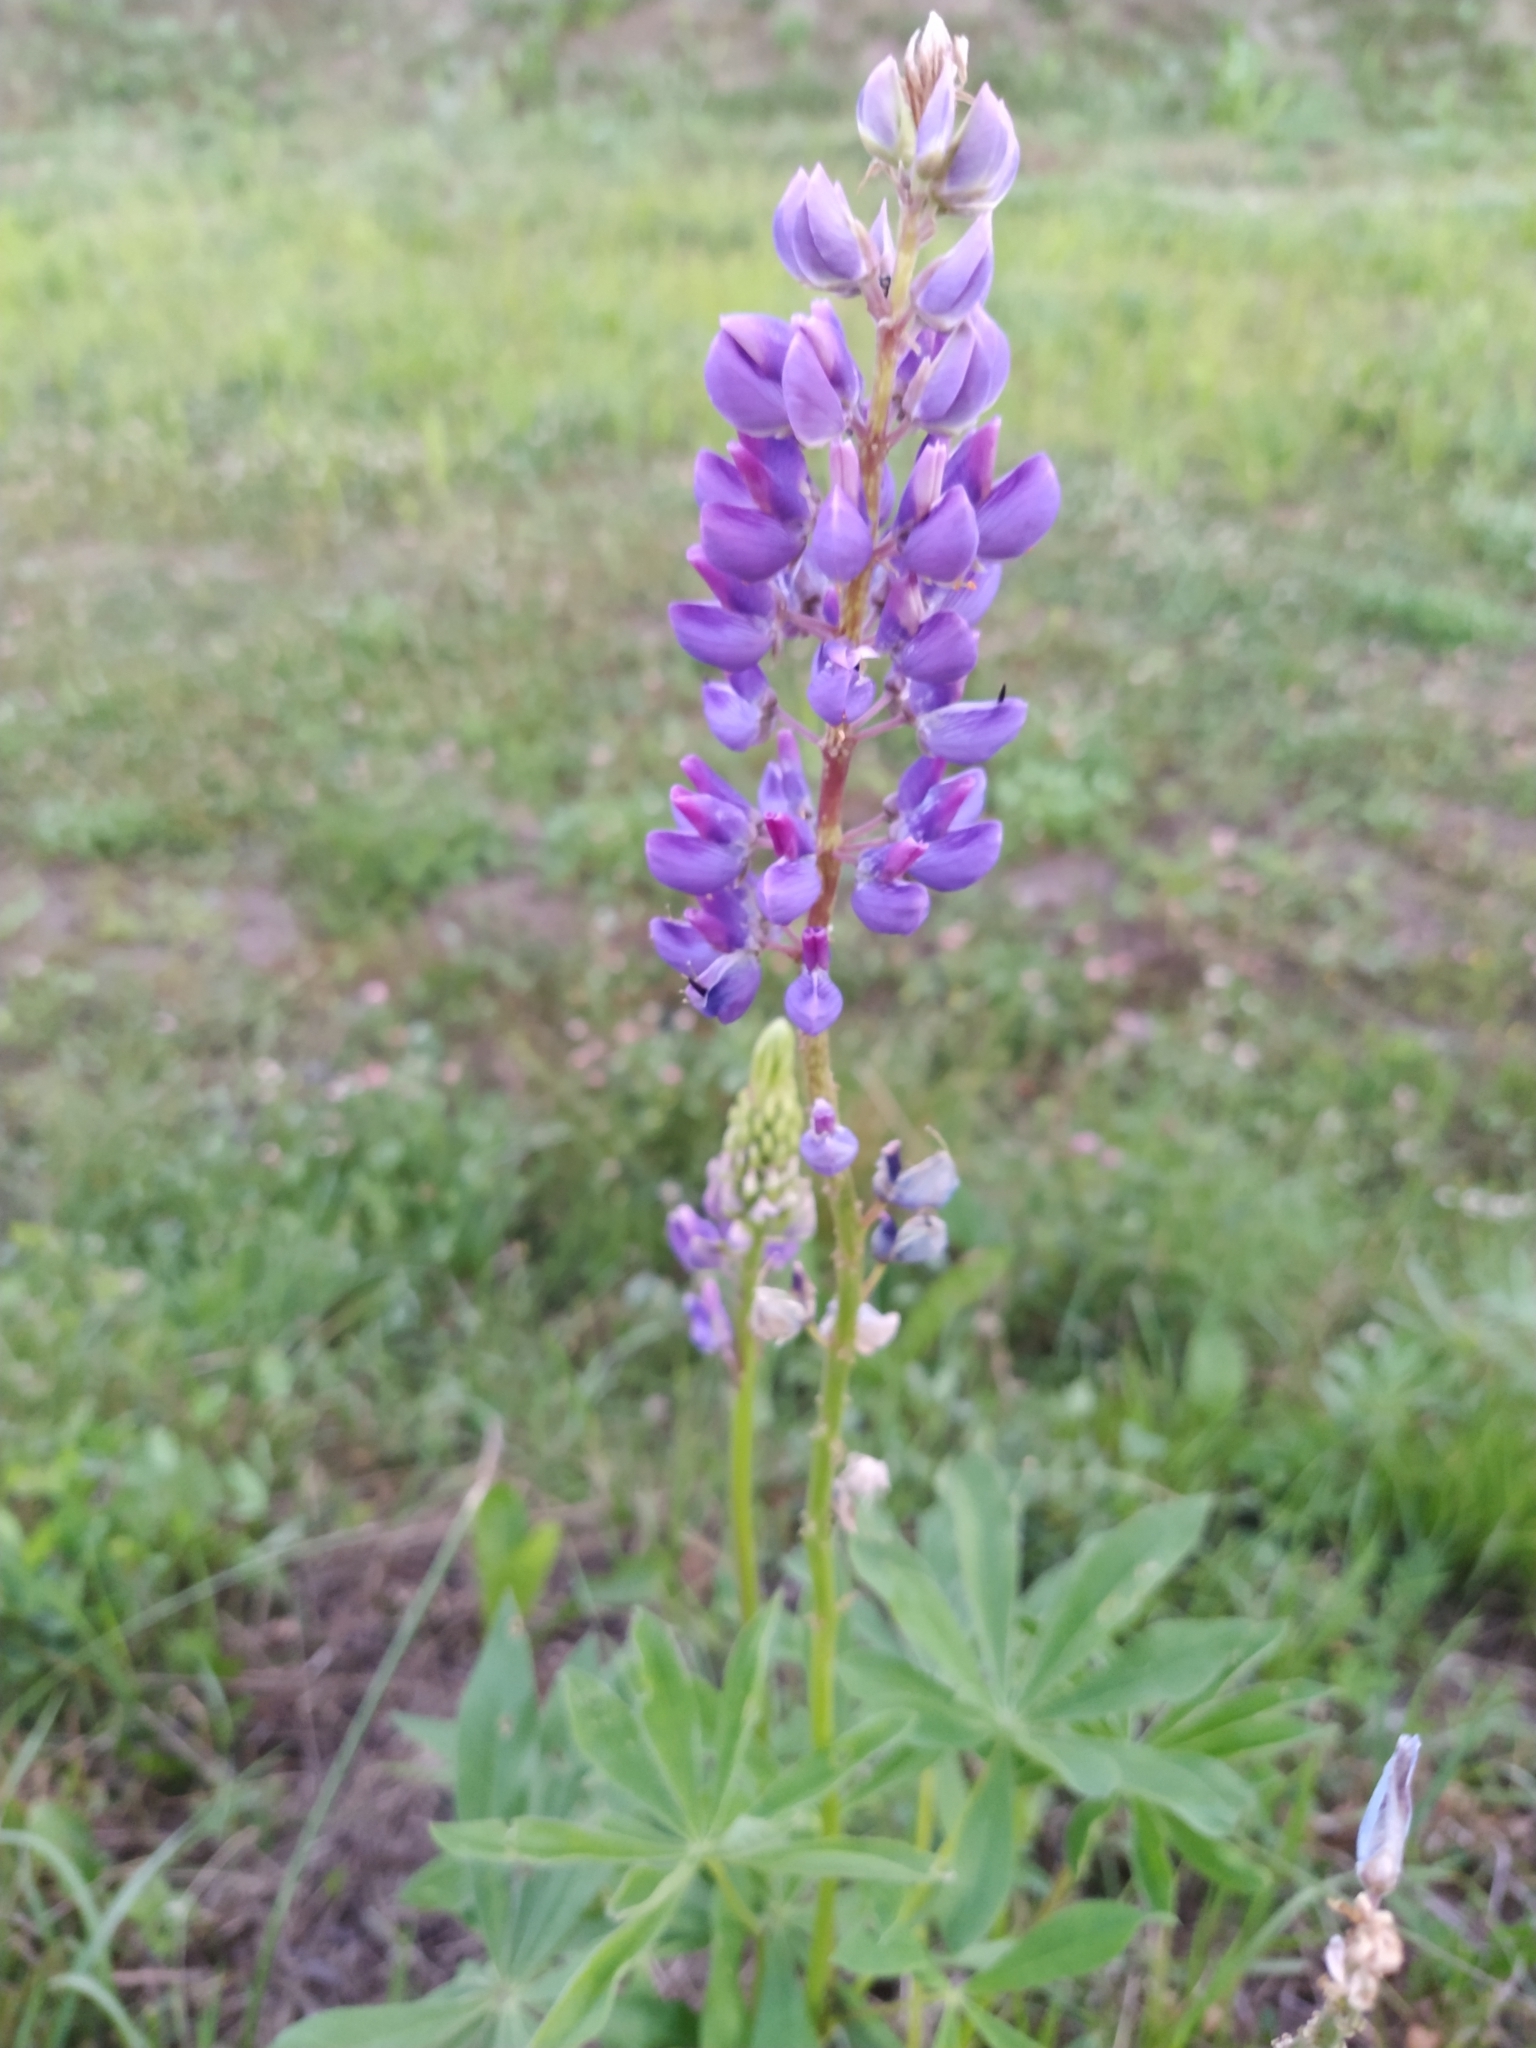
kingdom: Plantae
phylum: Tracheophyta
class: Magnoliopsida
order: Fabales
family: Fabaceae
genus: Lupinus
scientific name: Lupinus polyphyllus
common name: Garden lupin
